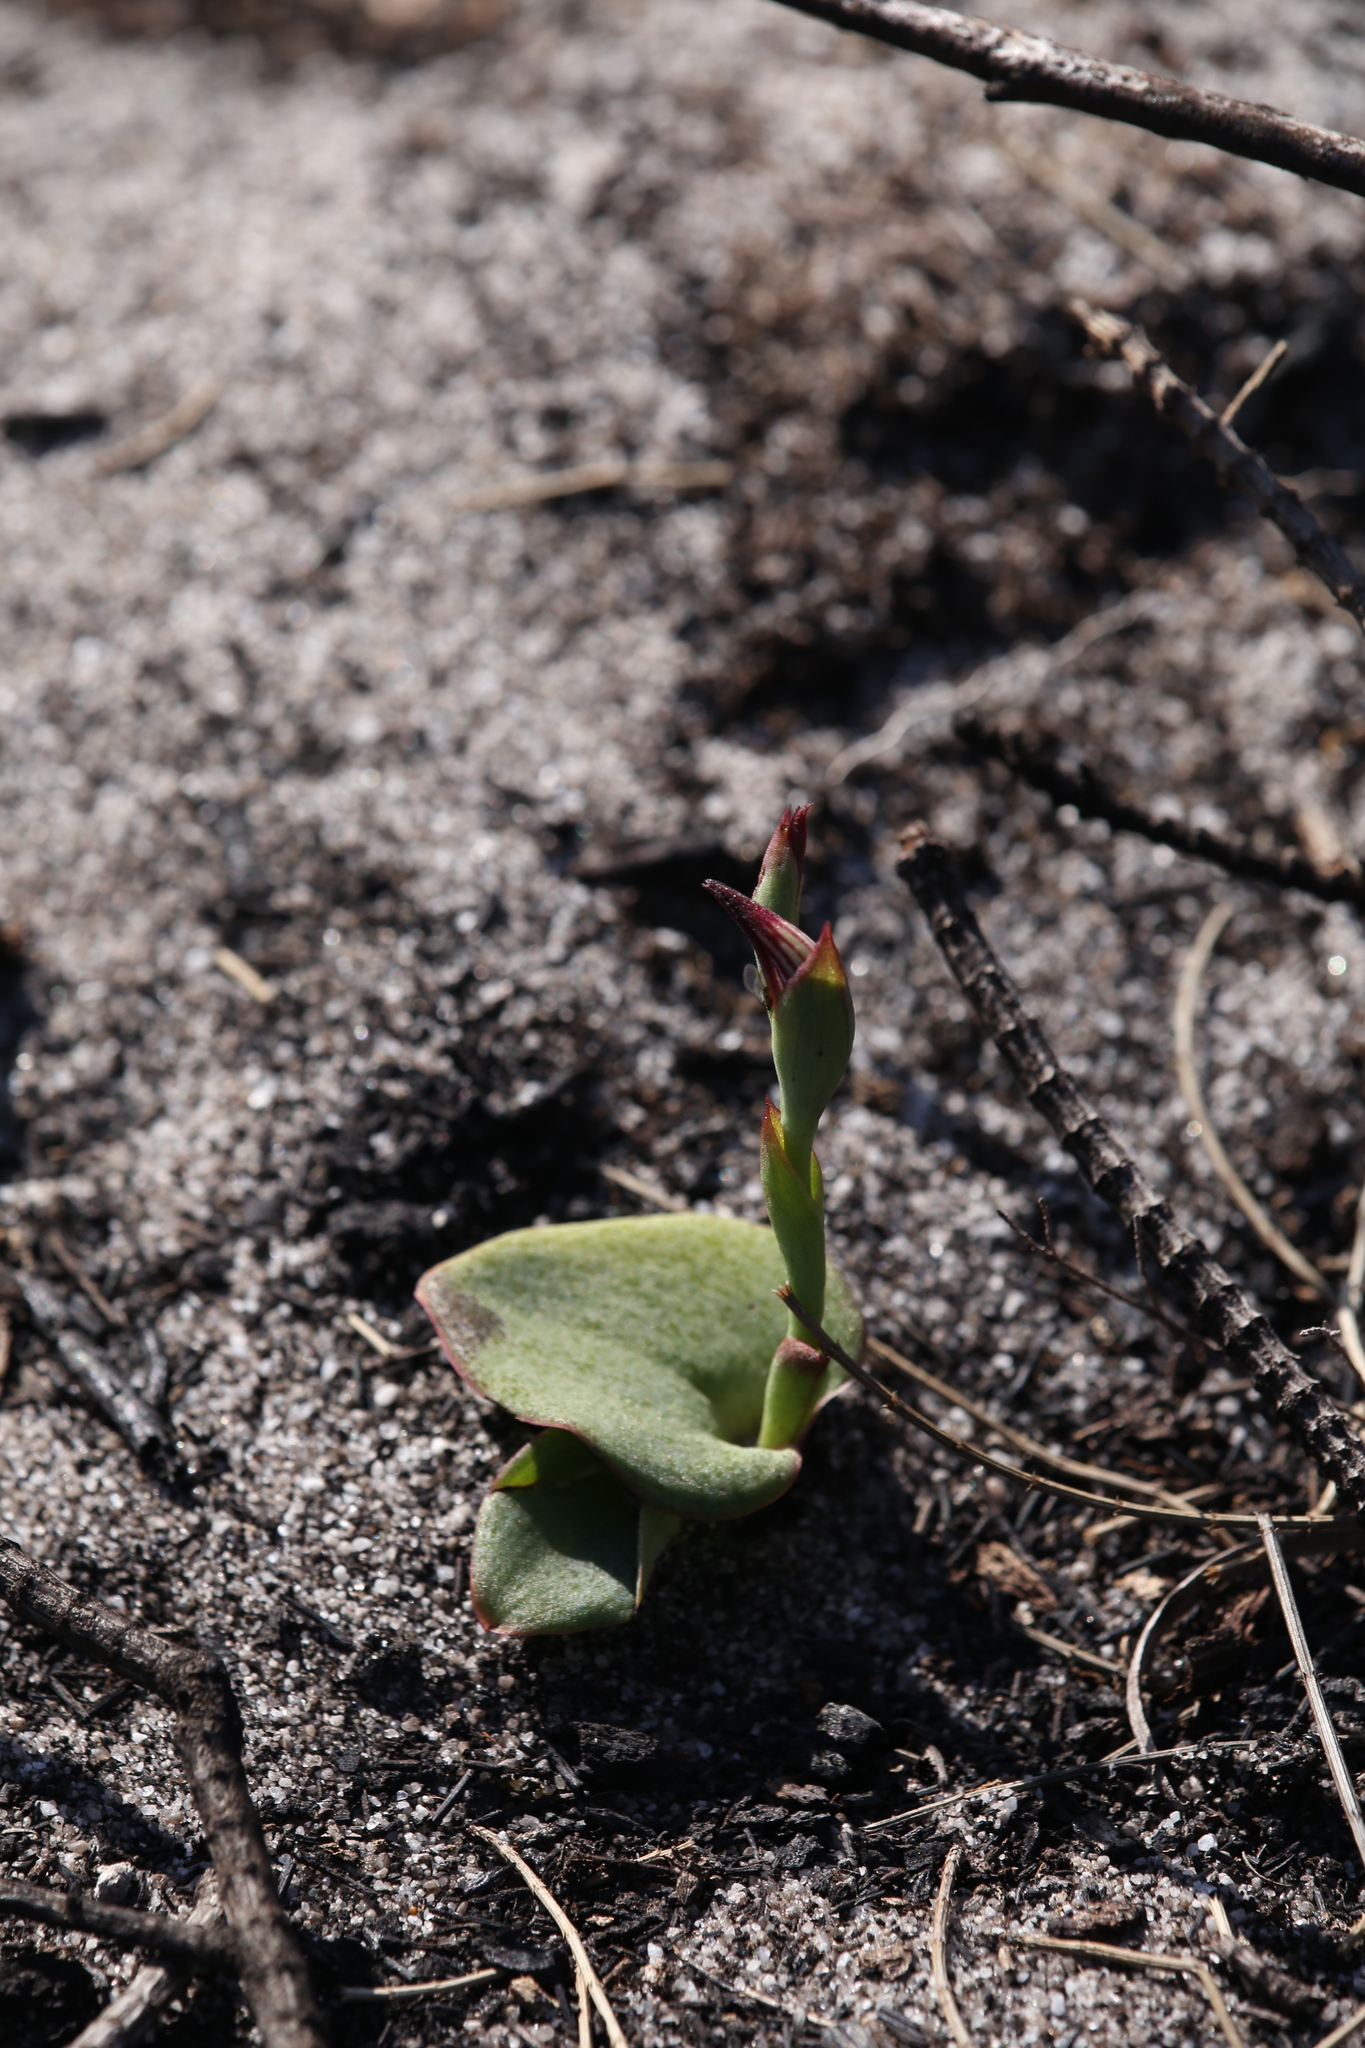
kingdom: Plantae
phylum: Tracheophyta
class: Liliopsida
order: Asparagales
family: Orchidaceae
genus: Pyrorchis
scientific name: Pyrorchis nigricans
